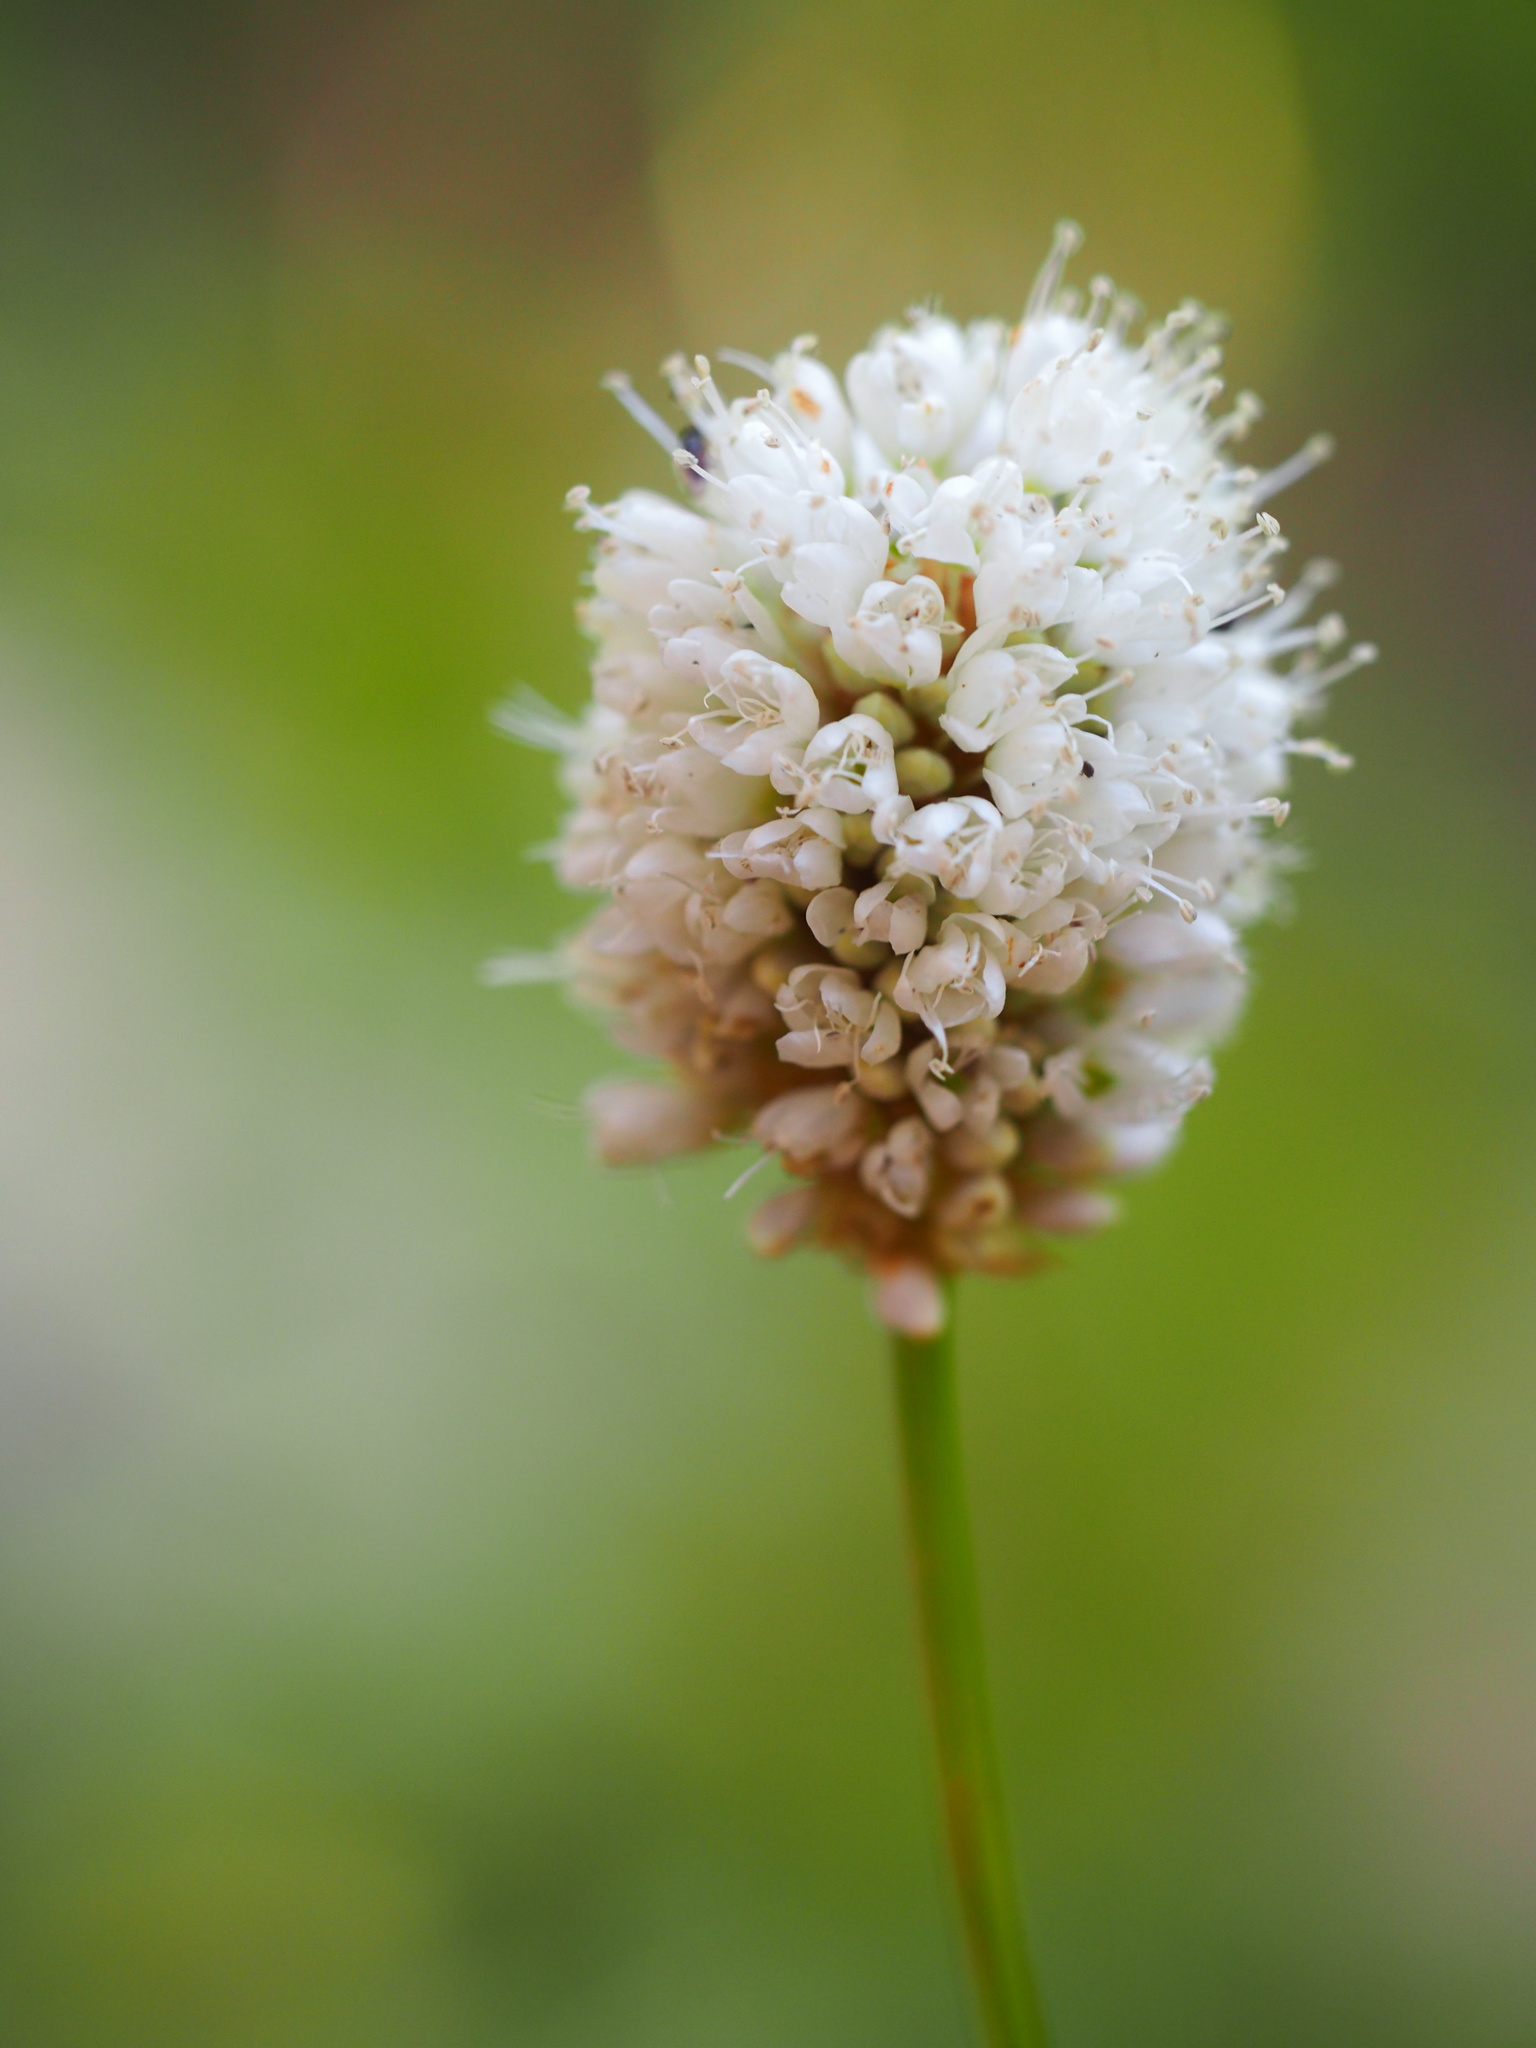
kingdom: Plantae
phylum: Tracheophyta
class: Magnoliopsida
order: Caryophyllales
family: Polygonaceae
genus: Bistorta
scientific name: Bistorta bistortoides
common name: American bistort
